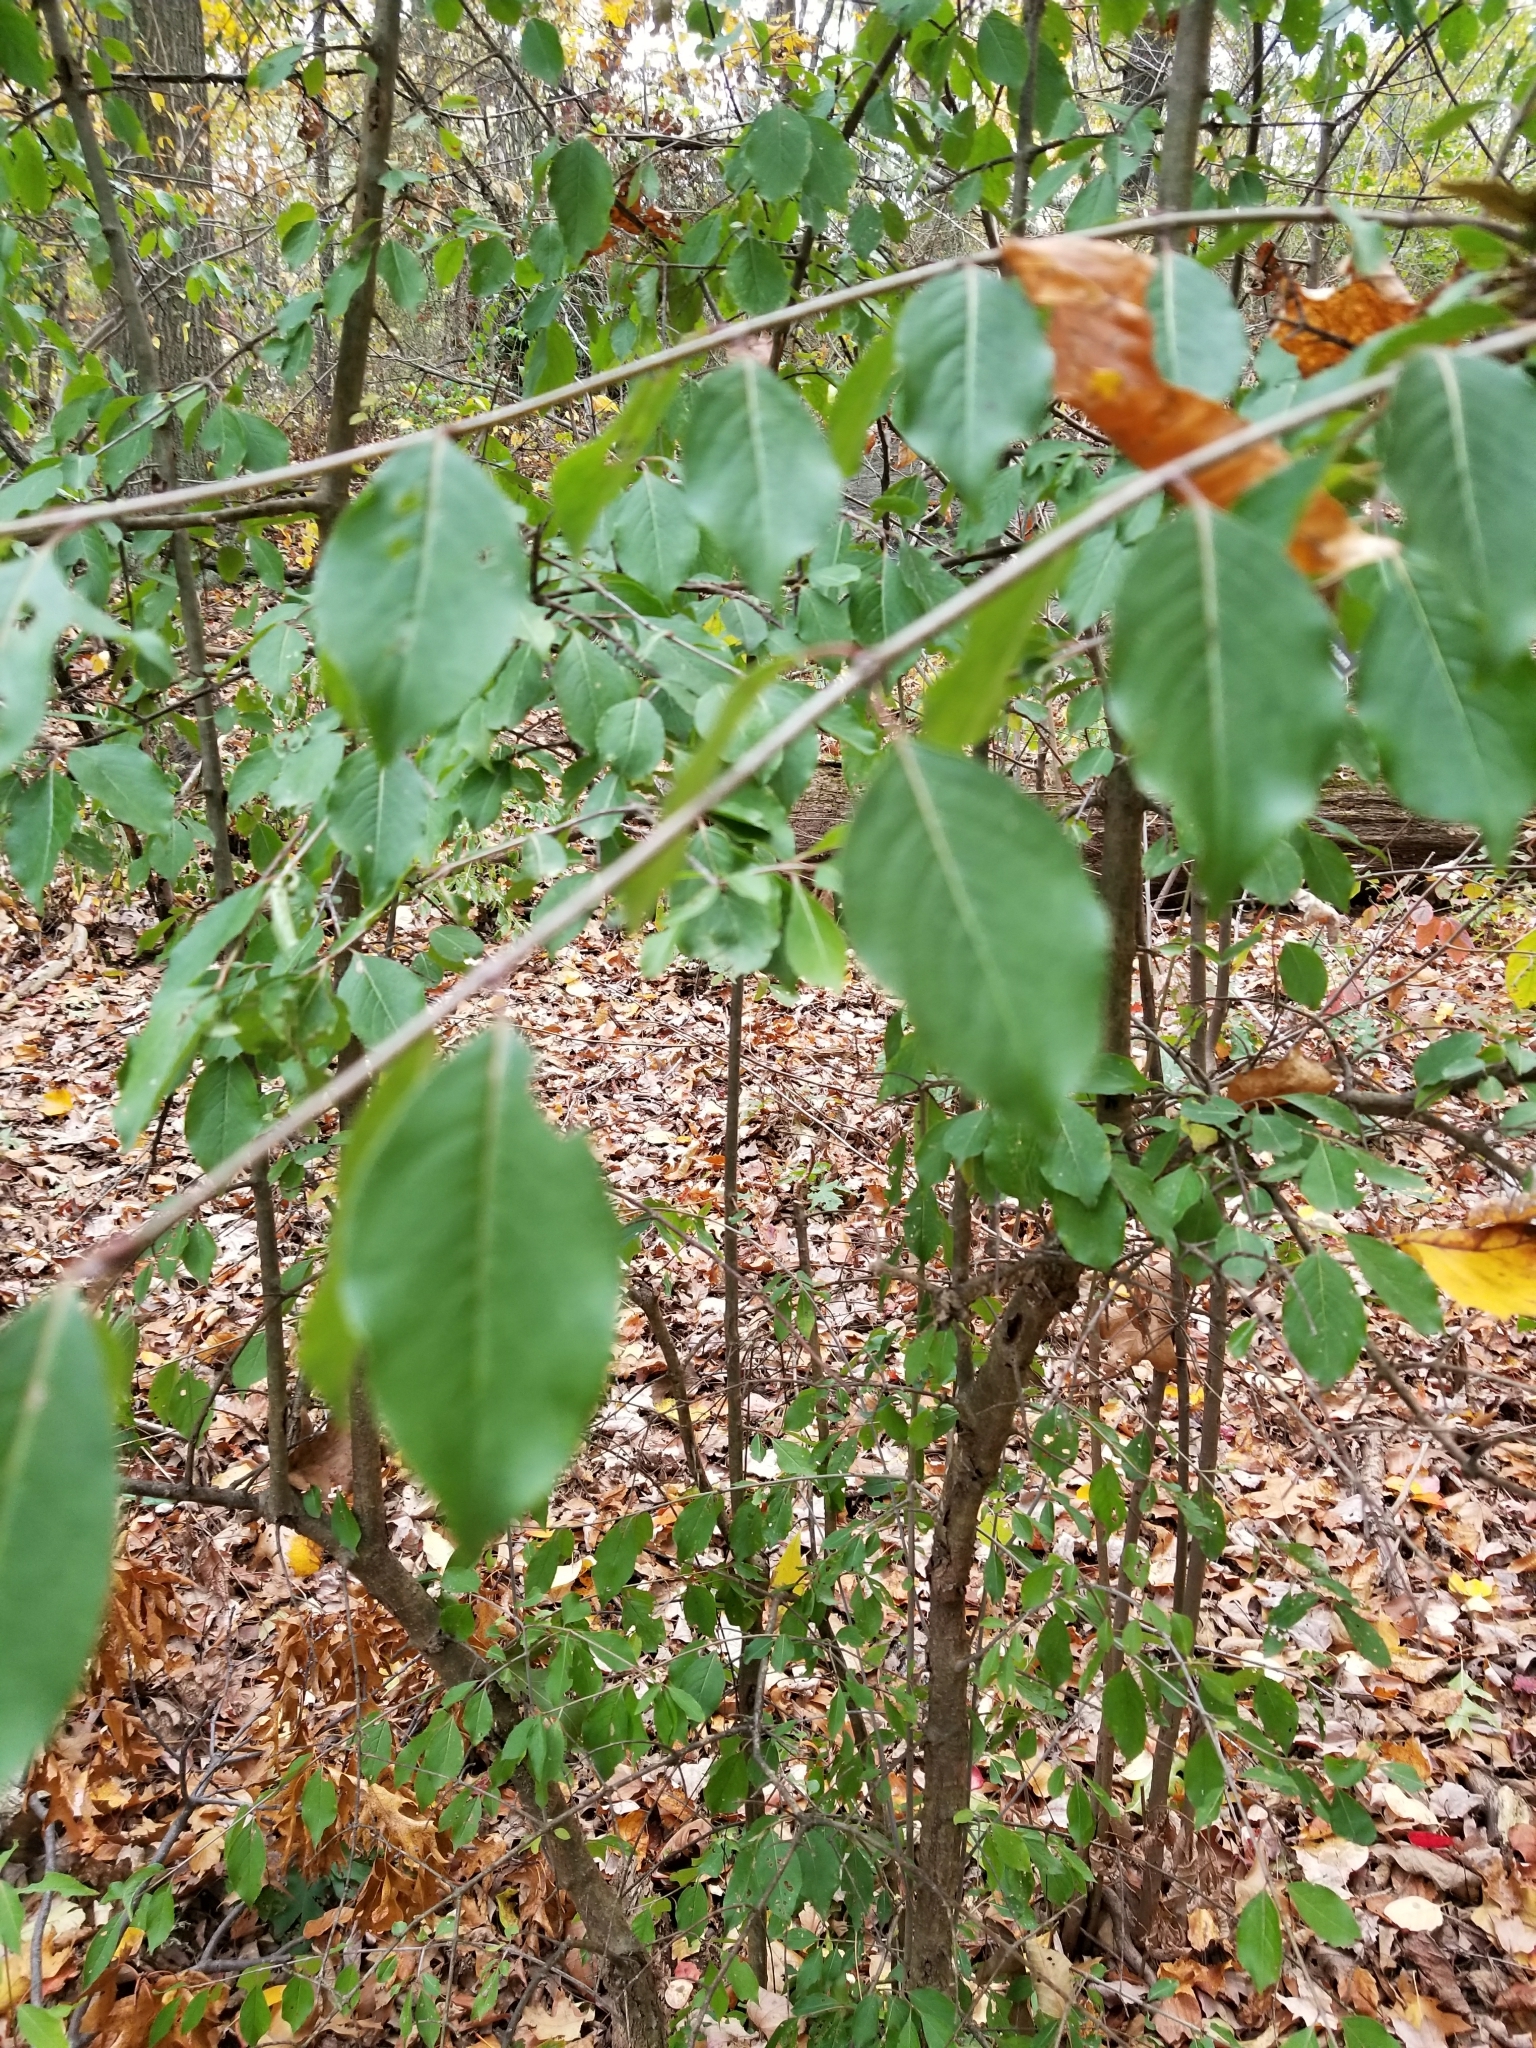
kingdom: Plantae
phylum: Tracheophyta
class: Magnoliopsida
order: Dipsacales
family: Viburnaceae
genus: Viburnum
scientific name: Viburnum prunifolium
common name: Black haw
